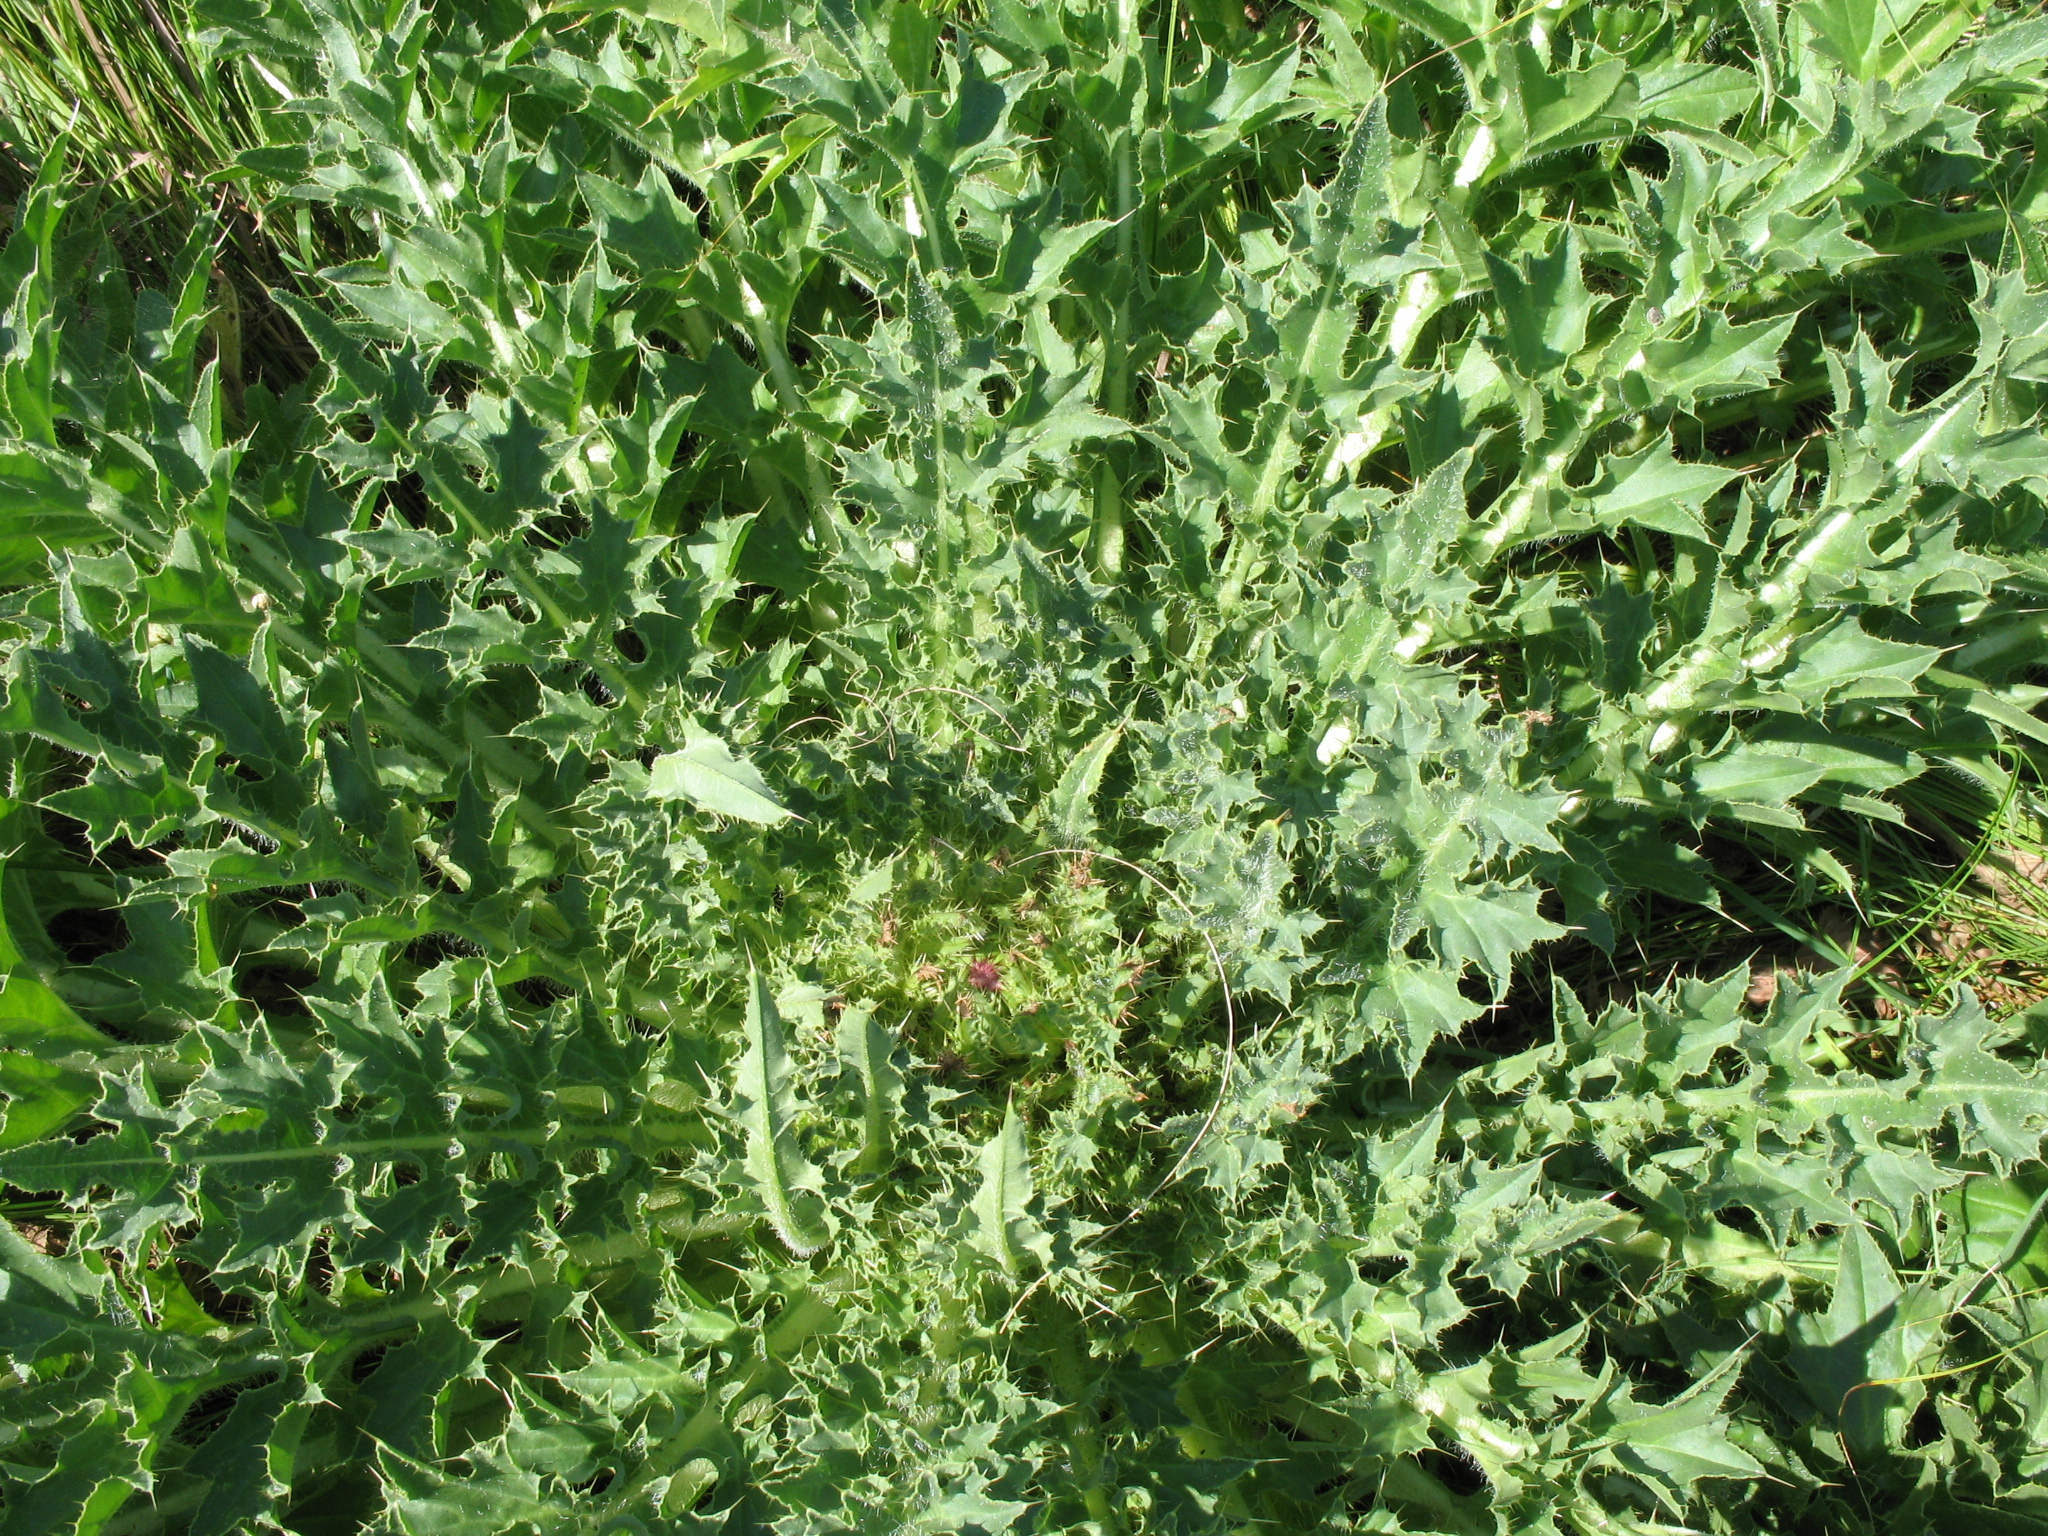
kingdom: Plantae
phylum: Tracheophyta
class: Magnoliopsida
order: Asterales
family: Asteraceae
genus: Cirsium
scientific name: Cirsium esculentum
